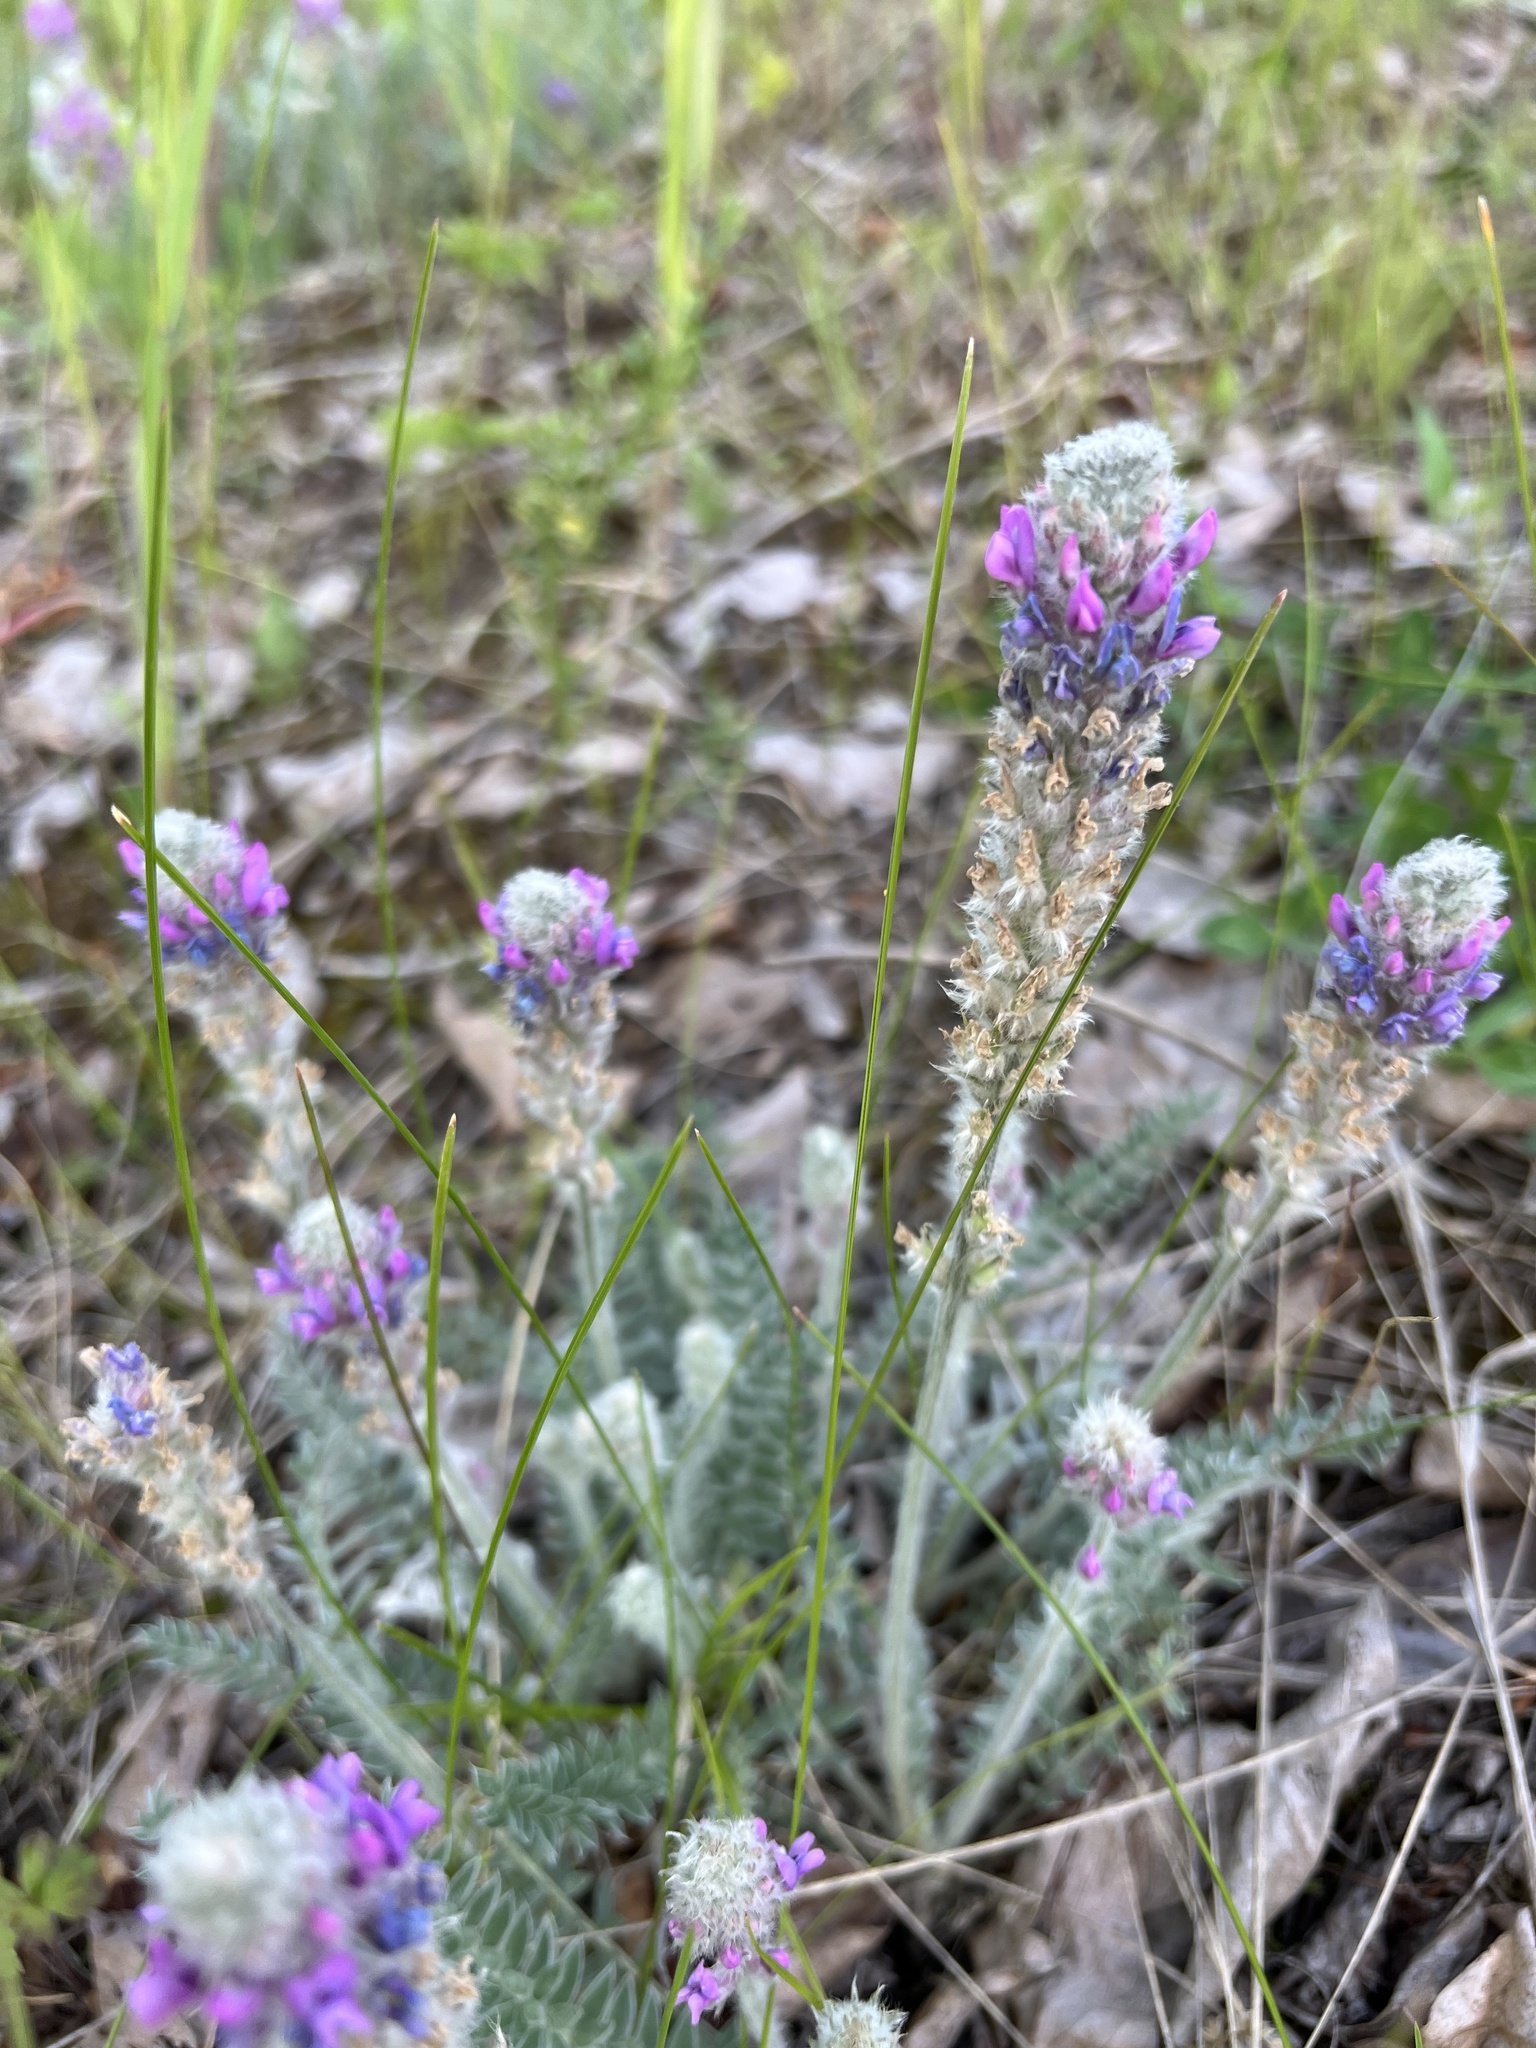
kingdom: Plantae
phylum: Tracheophyta
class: Magnoliopsida
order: Fabales
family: Fabaceae
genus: Oxytropis
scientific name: Oxytropis splendens
